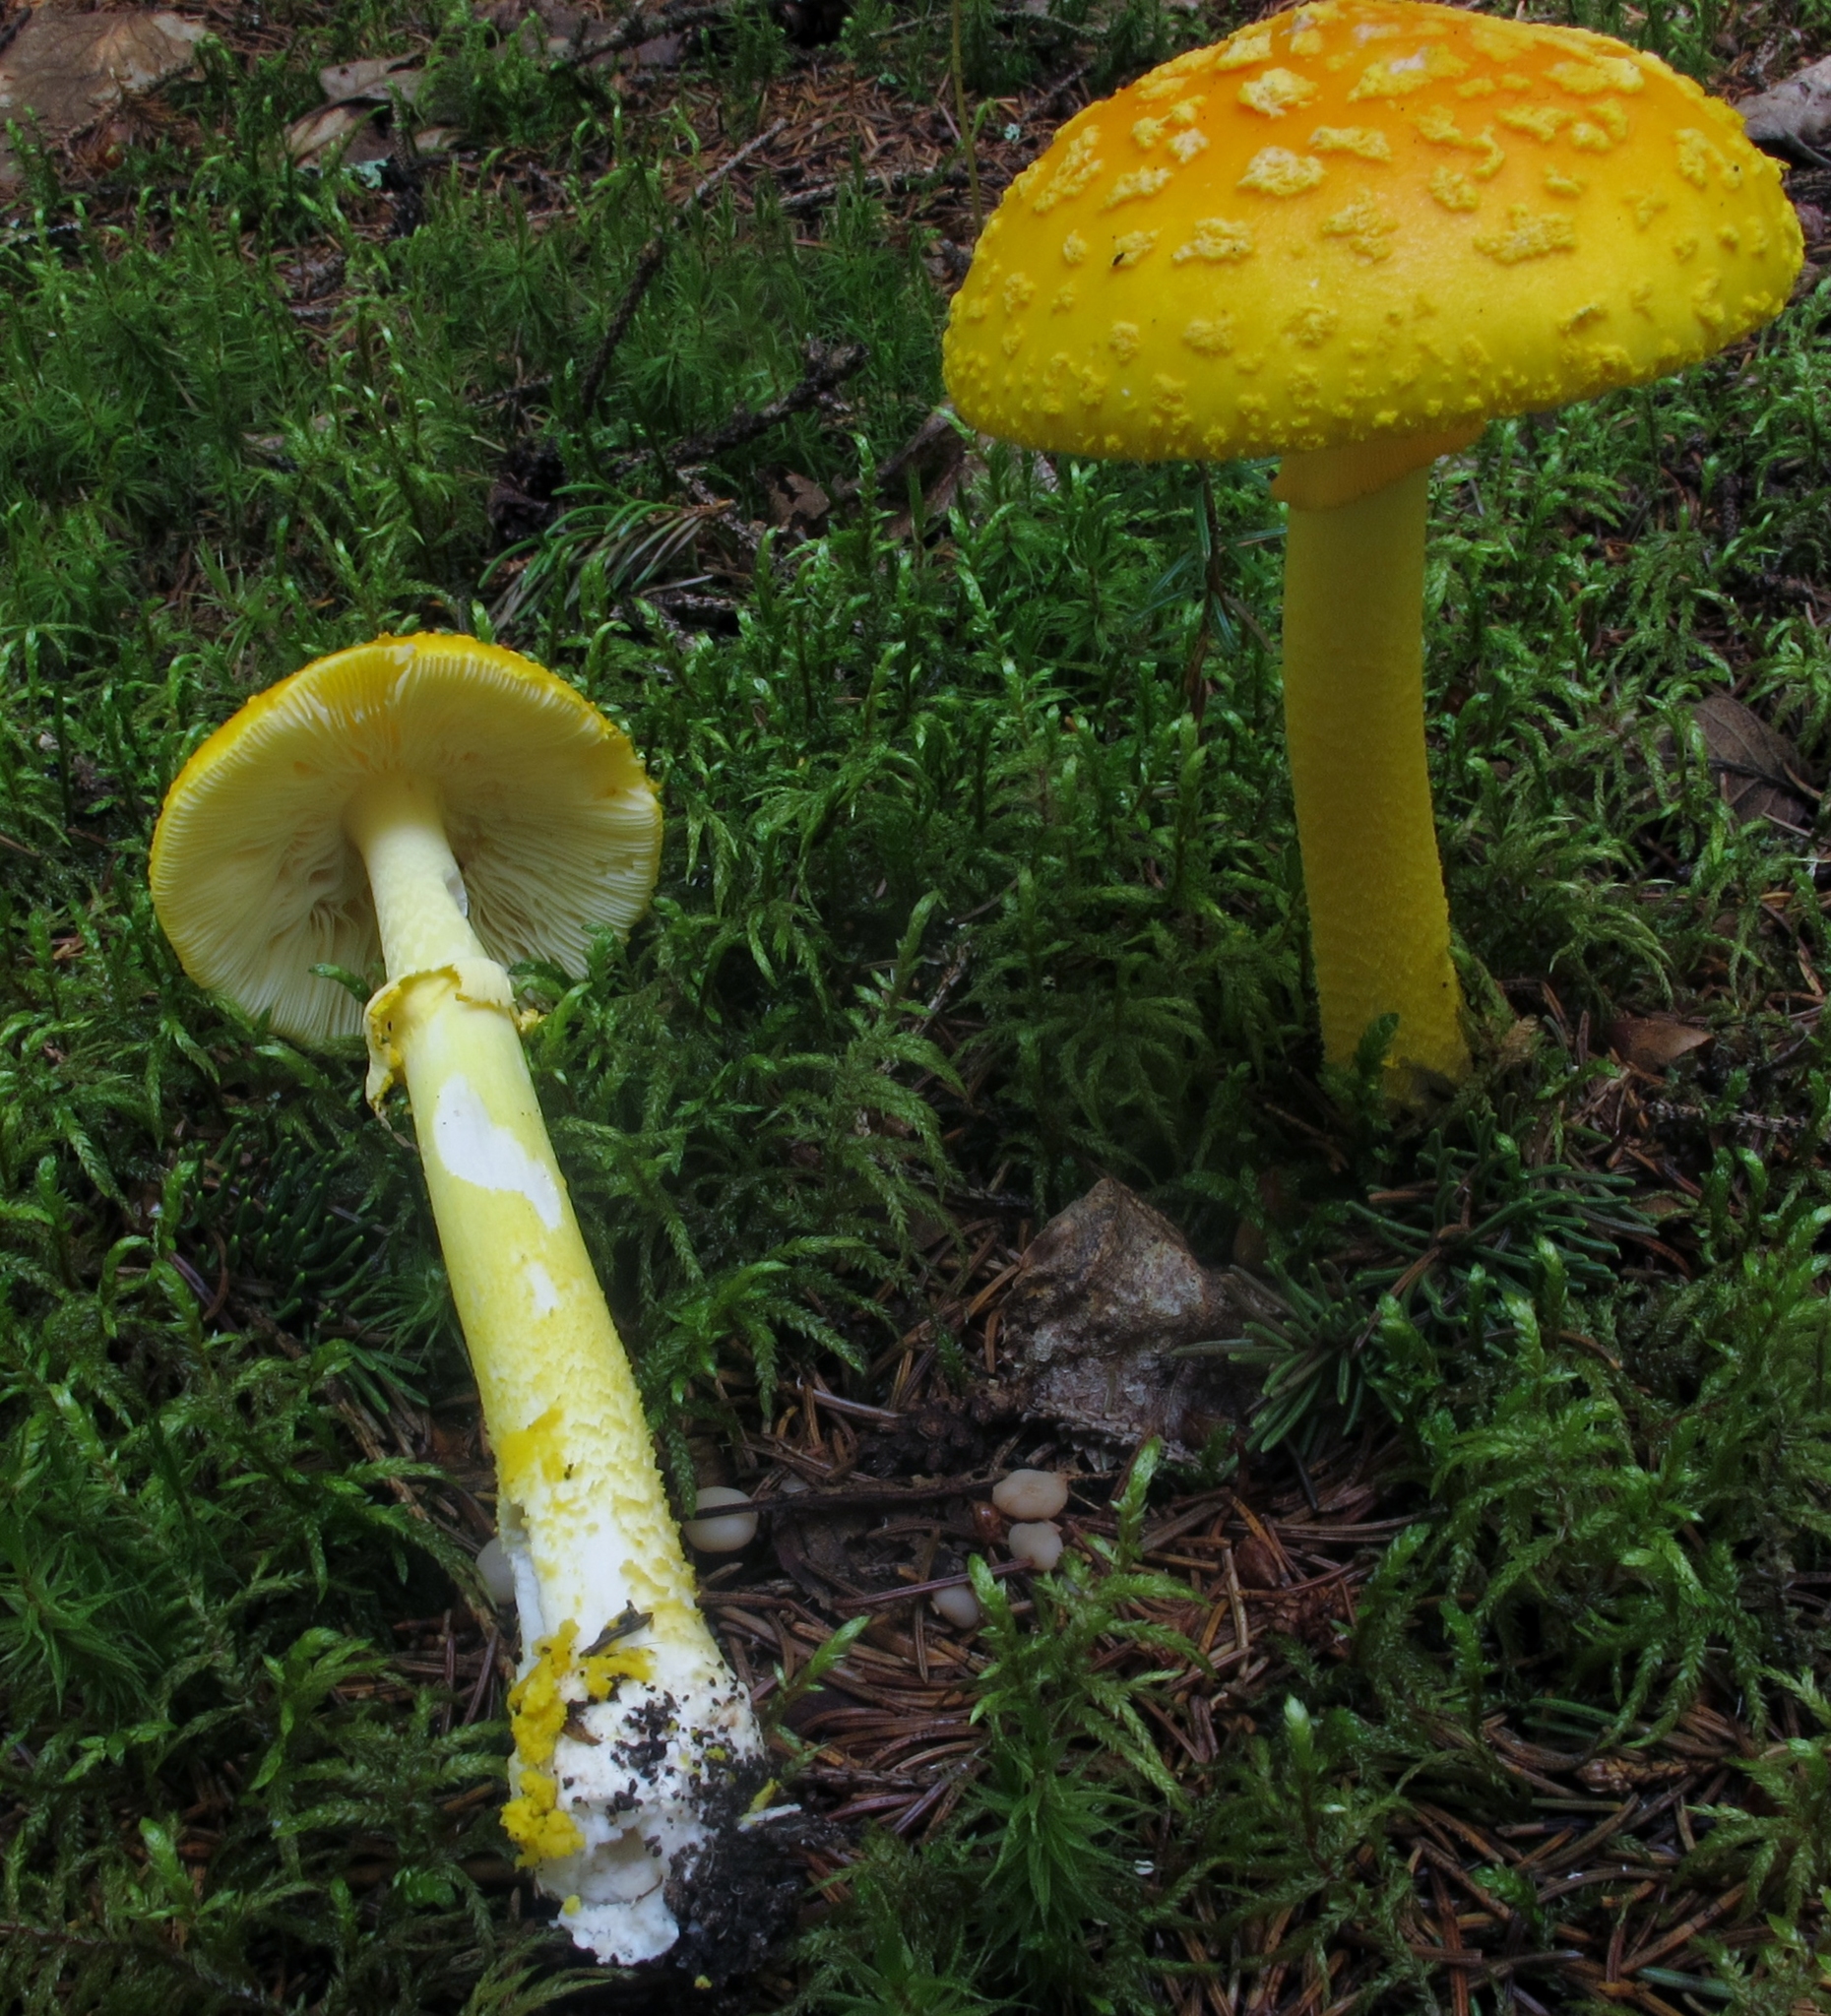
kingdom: Fungi
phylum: Basidiomycota
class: Agaricomycetes
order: Agaricales
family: Amanitaceae
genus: Amanita
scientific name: Amanita flavoconia
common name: Yellow patches
